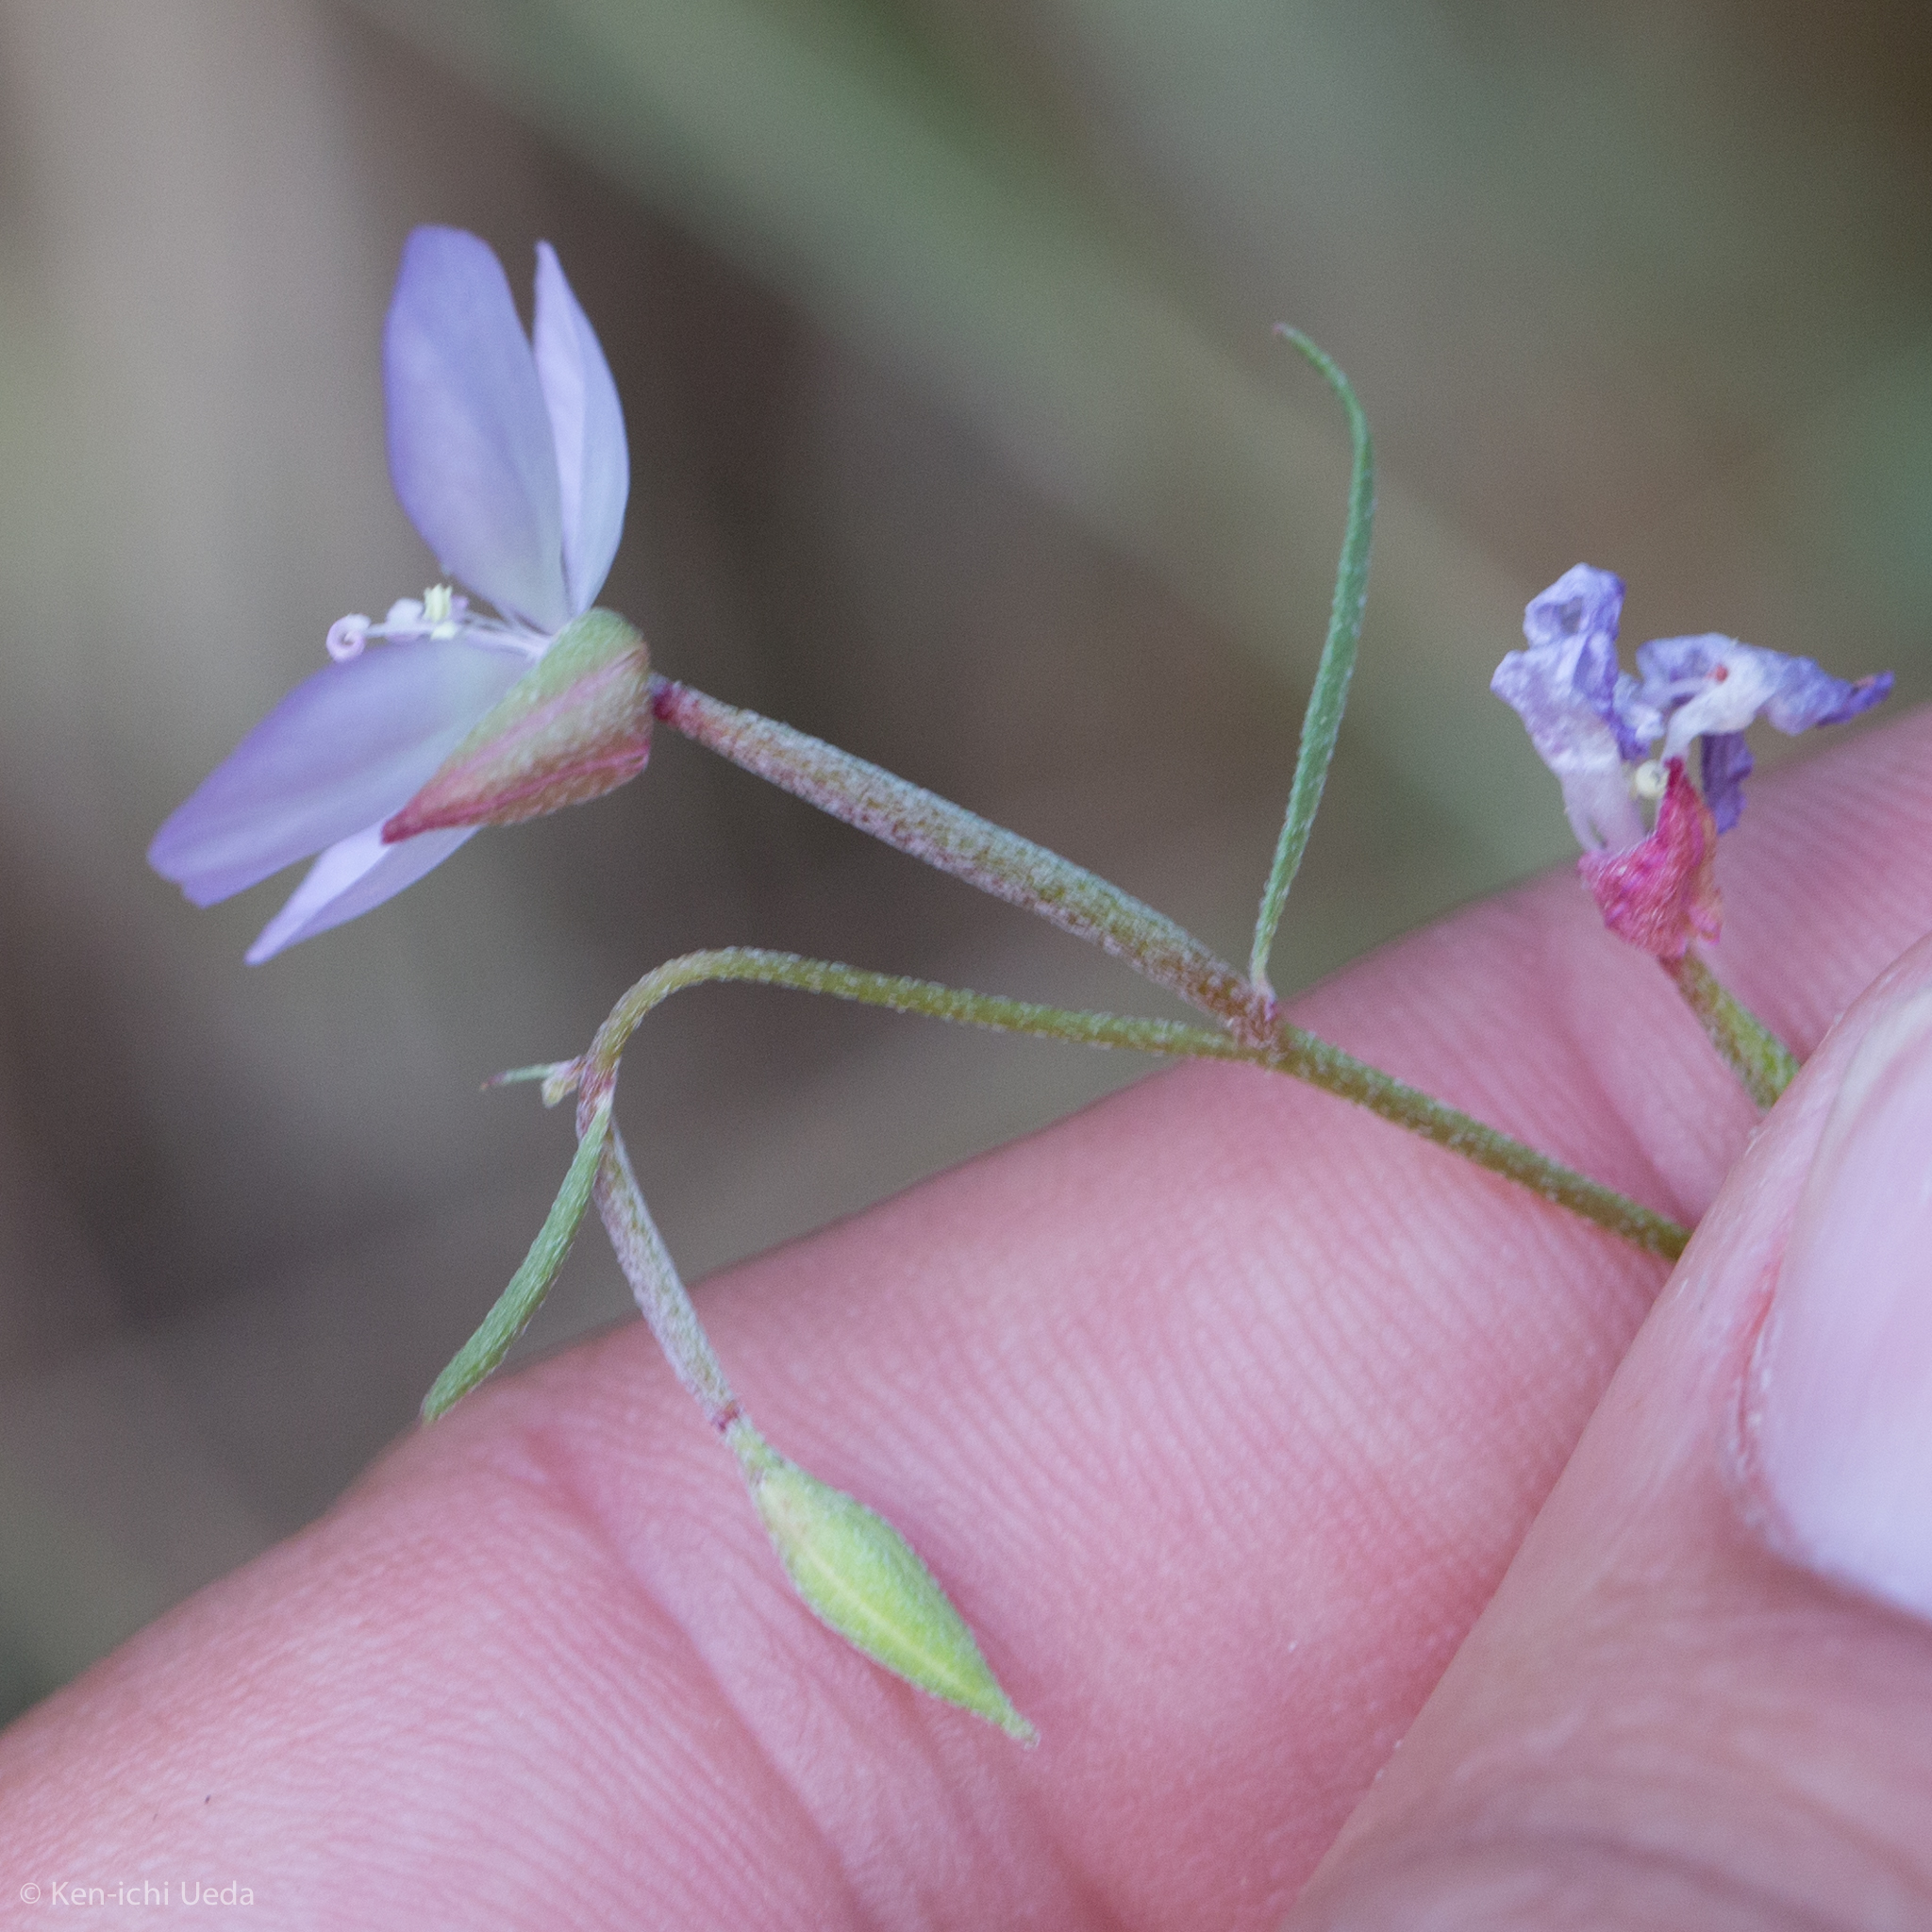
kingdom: Plantae
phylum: Tracheophyta
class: Magnoliopsida
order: Myrtales
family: Onagraceae
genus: Clarkia
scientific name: Clarkia epilobioides
